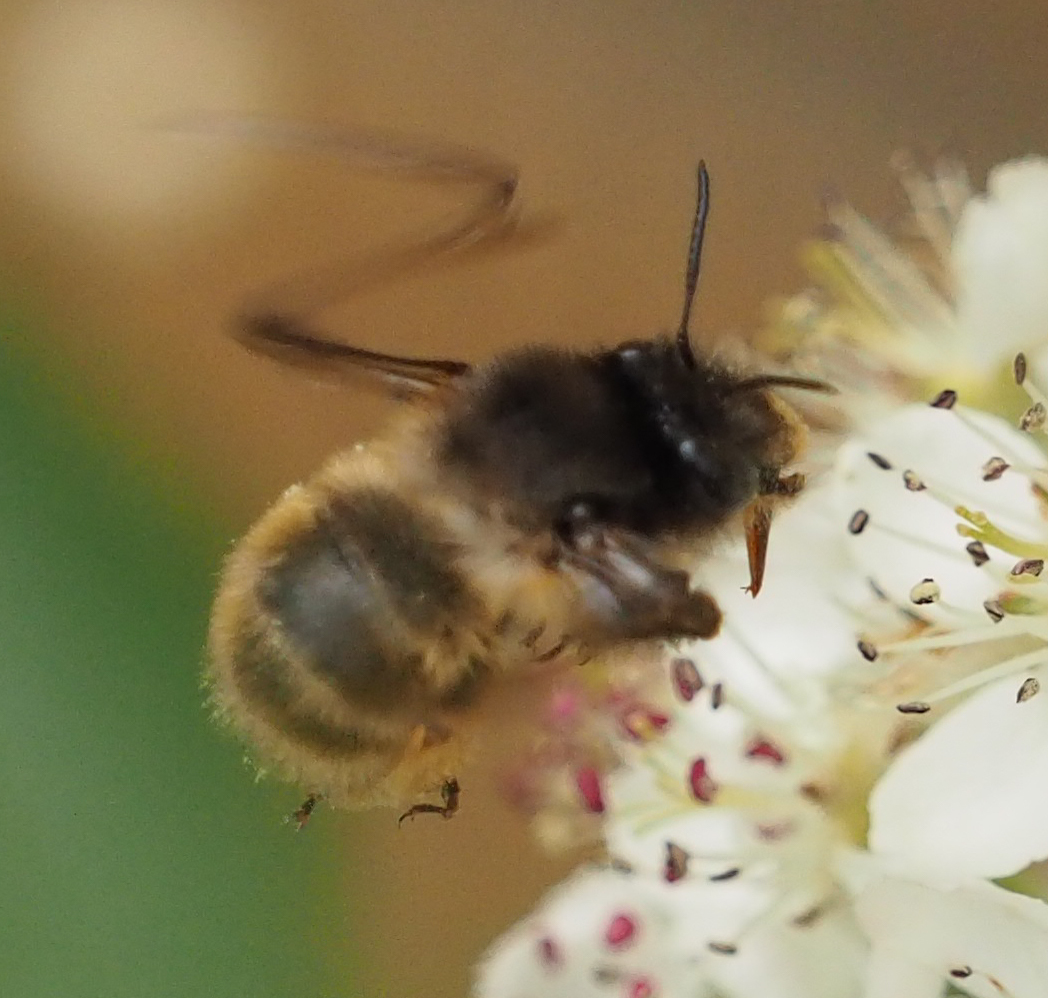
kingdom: Animalia
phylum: Arthropoda
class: Insecta
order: Hymenoptera
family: Apidae
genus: Anthophora
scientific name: Anthophora villosula
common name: Asian shaggy digger
